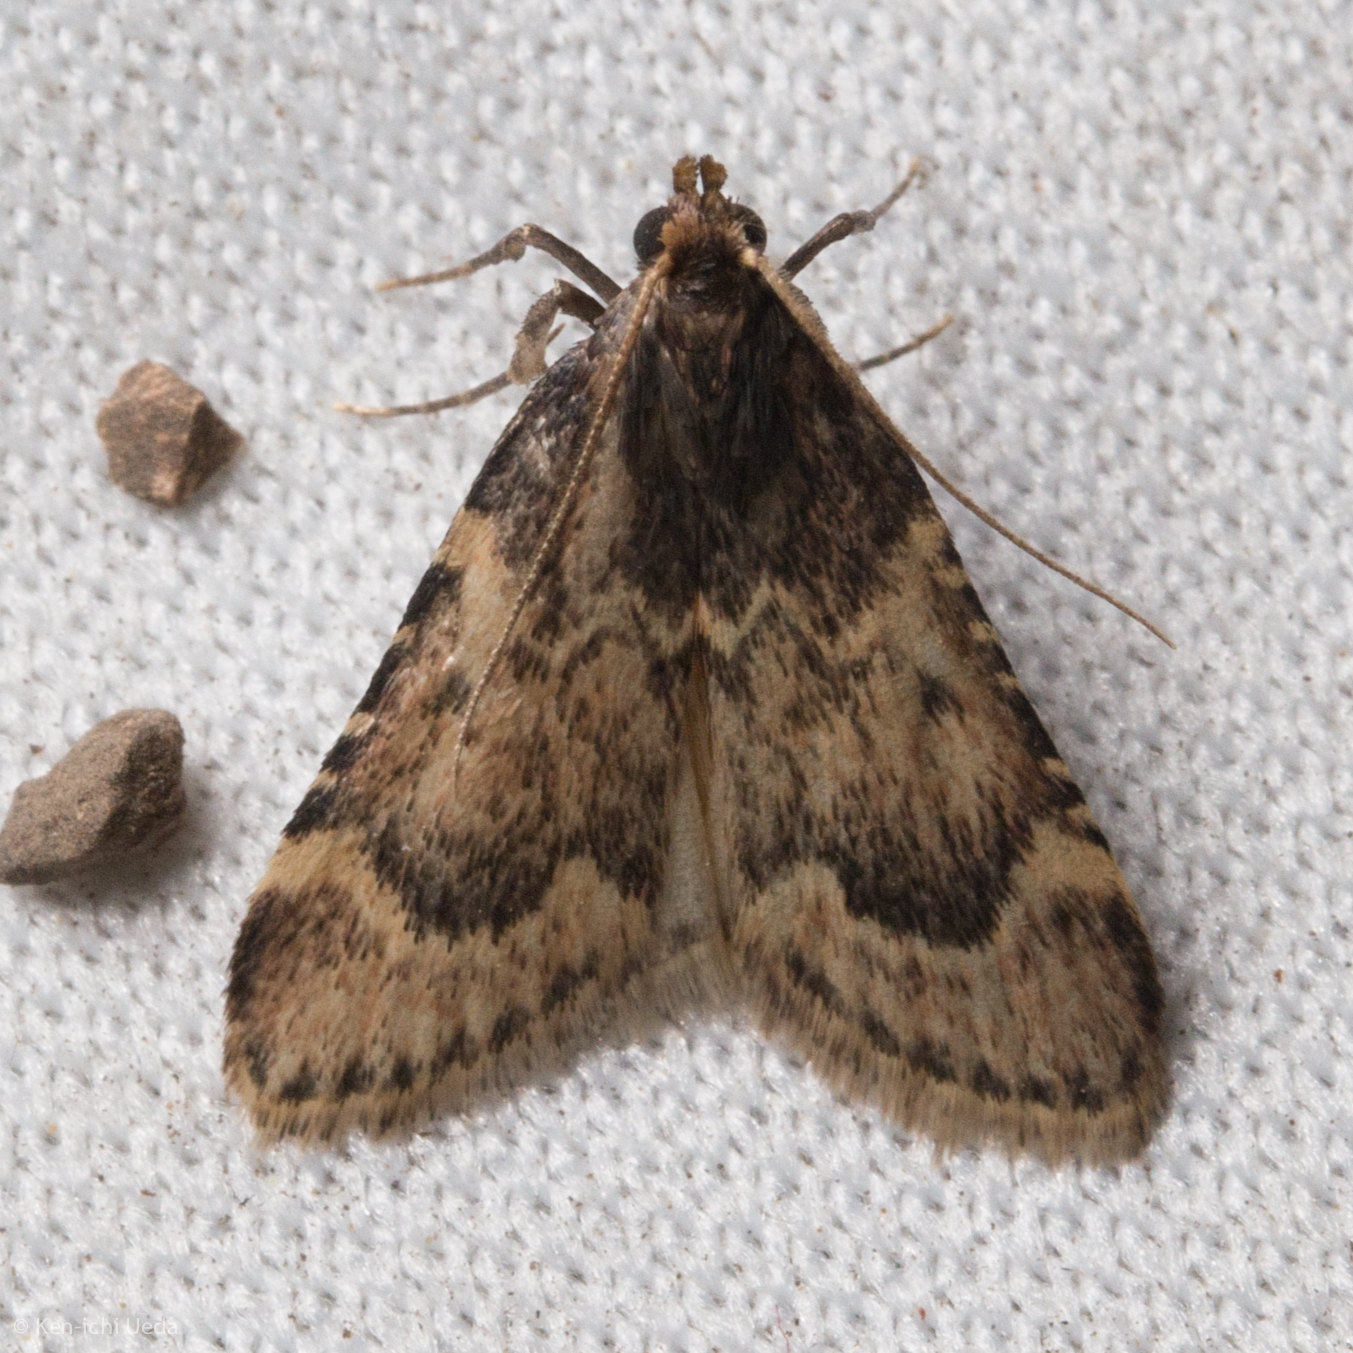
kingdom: Animalia
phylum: Arthropoda
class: Insecta
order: Lepidoptera
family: Crambidae
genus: Achyra
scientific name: Achyra occidentalis
